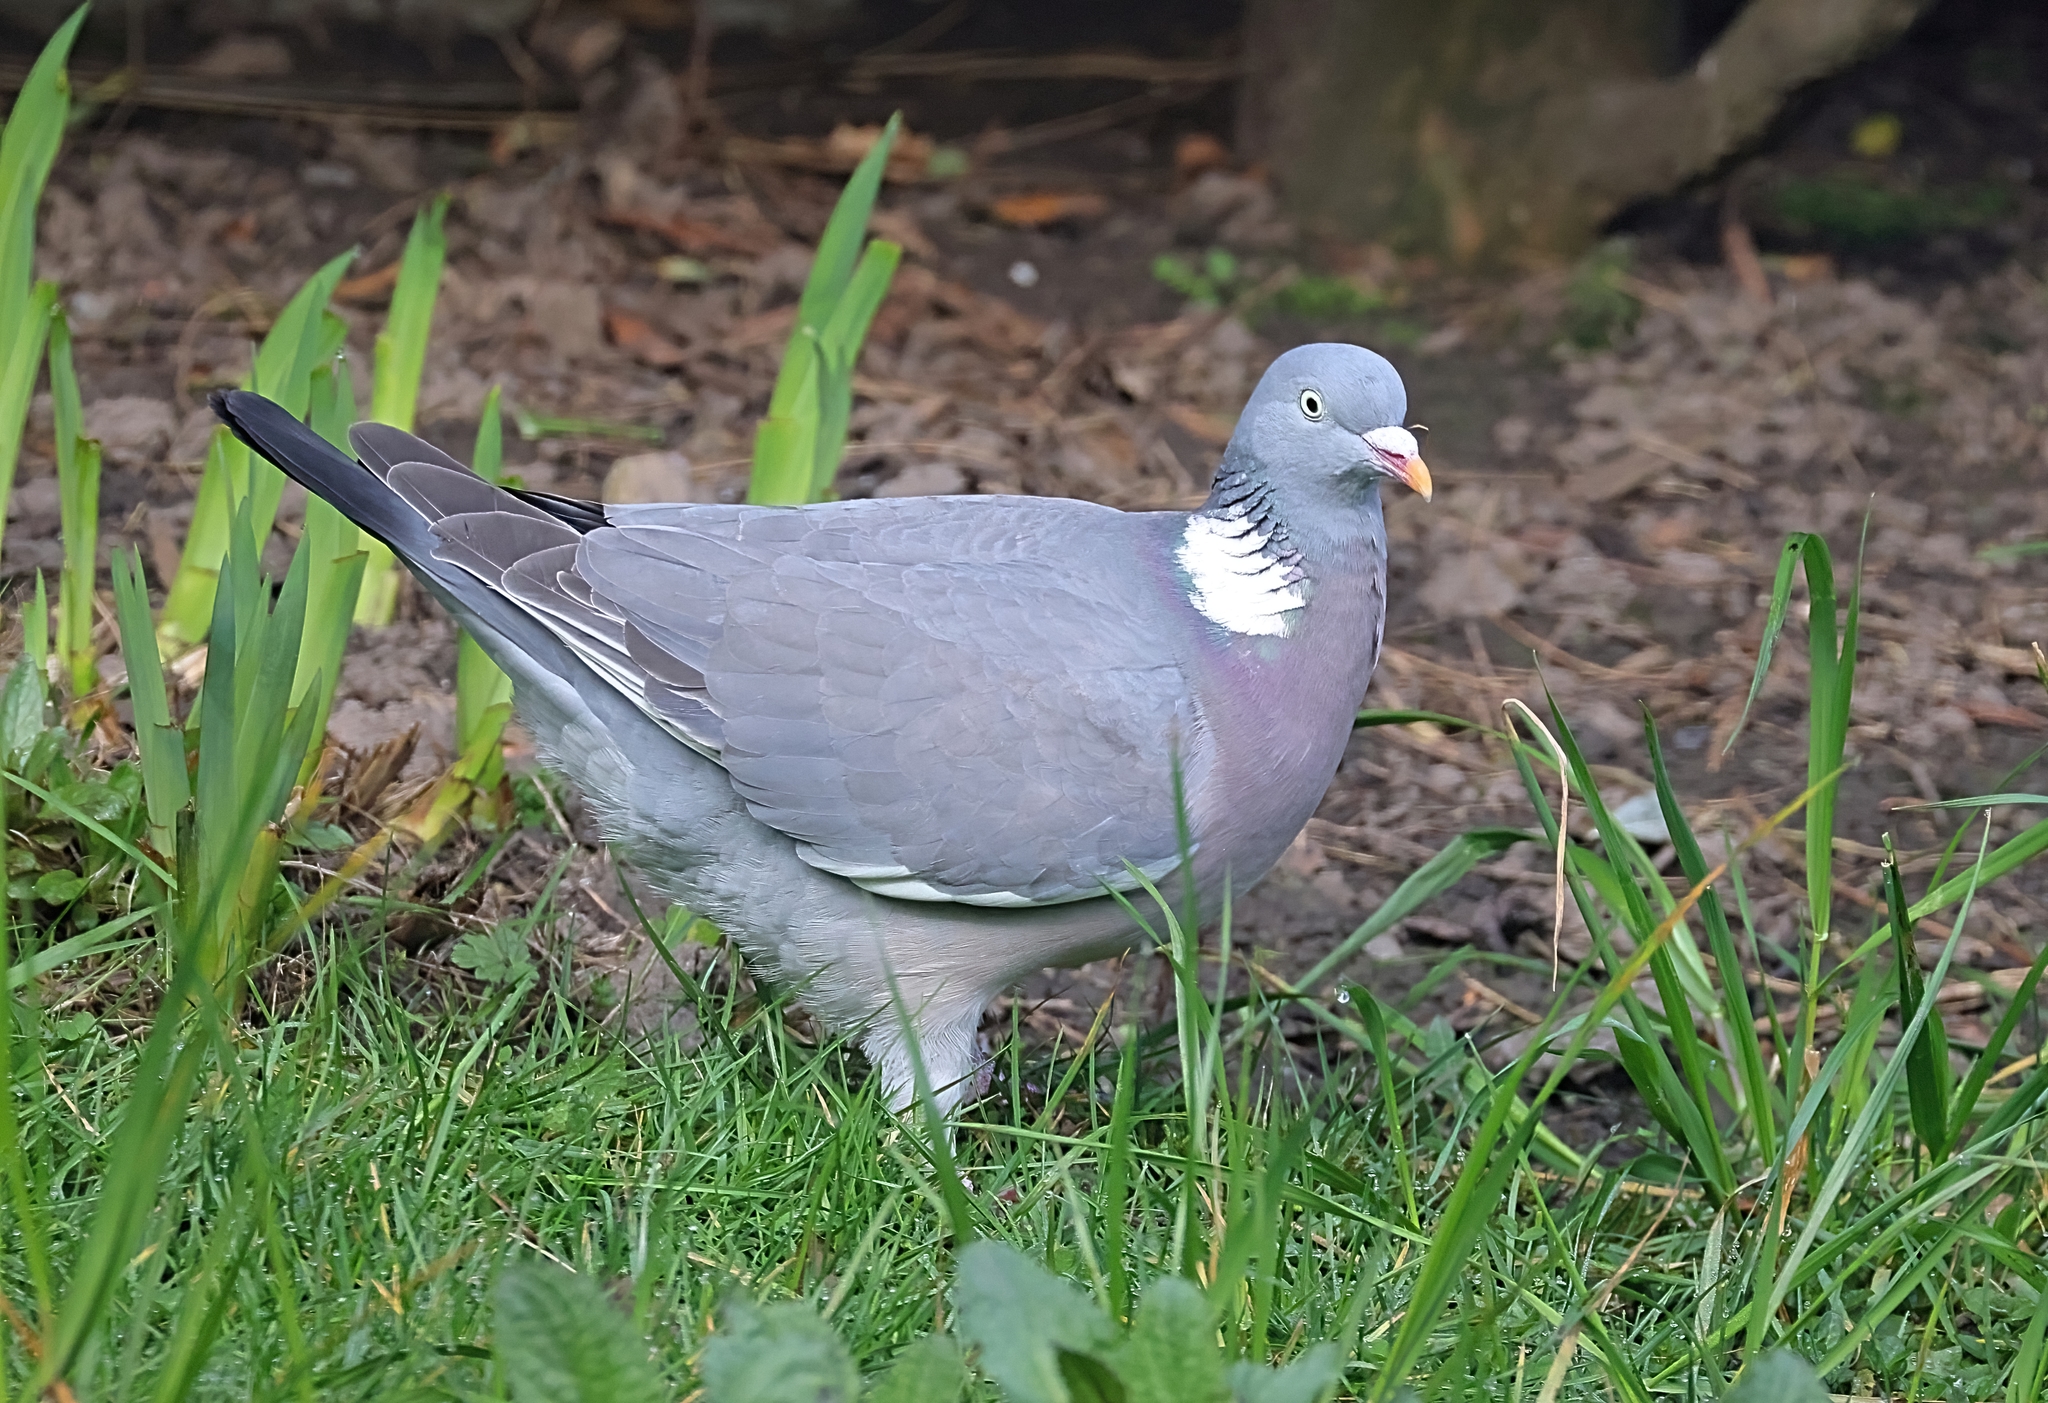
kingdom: Animalia
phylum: Chordata
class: Aves
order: Columbiformes
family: Columbidae
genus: Columba
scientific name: Columba palumbus
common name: Common wood pigeon
